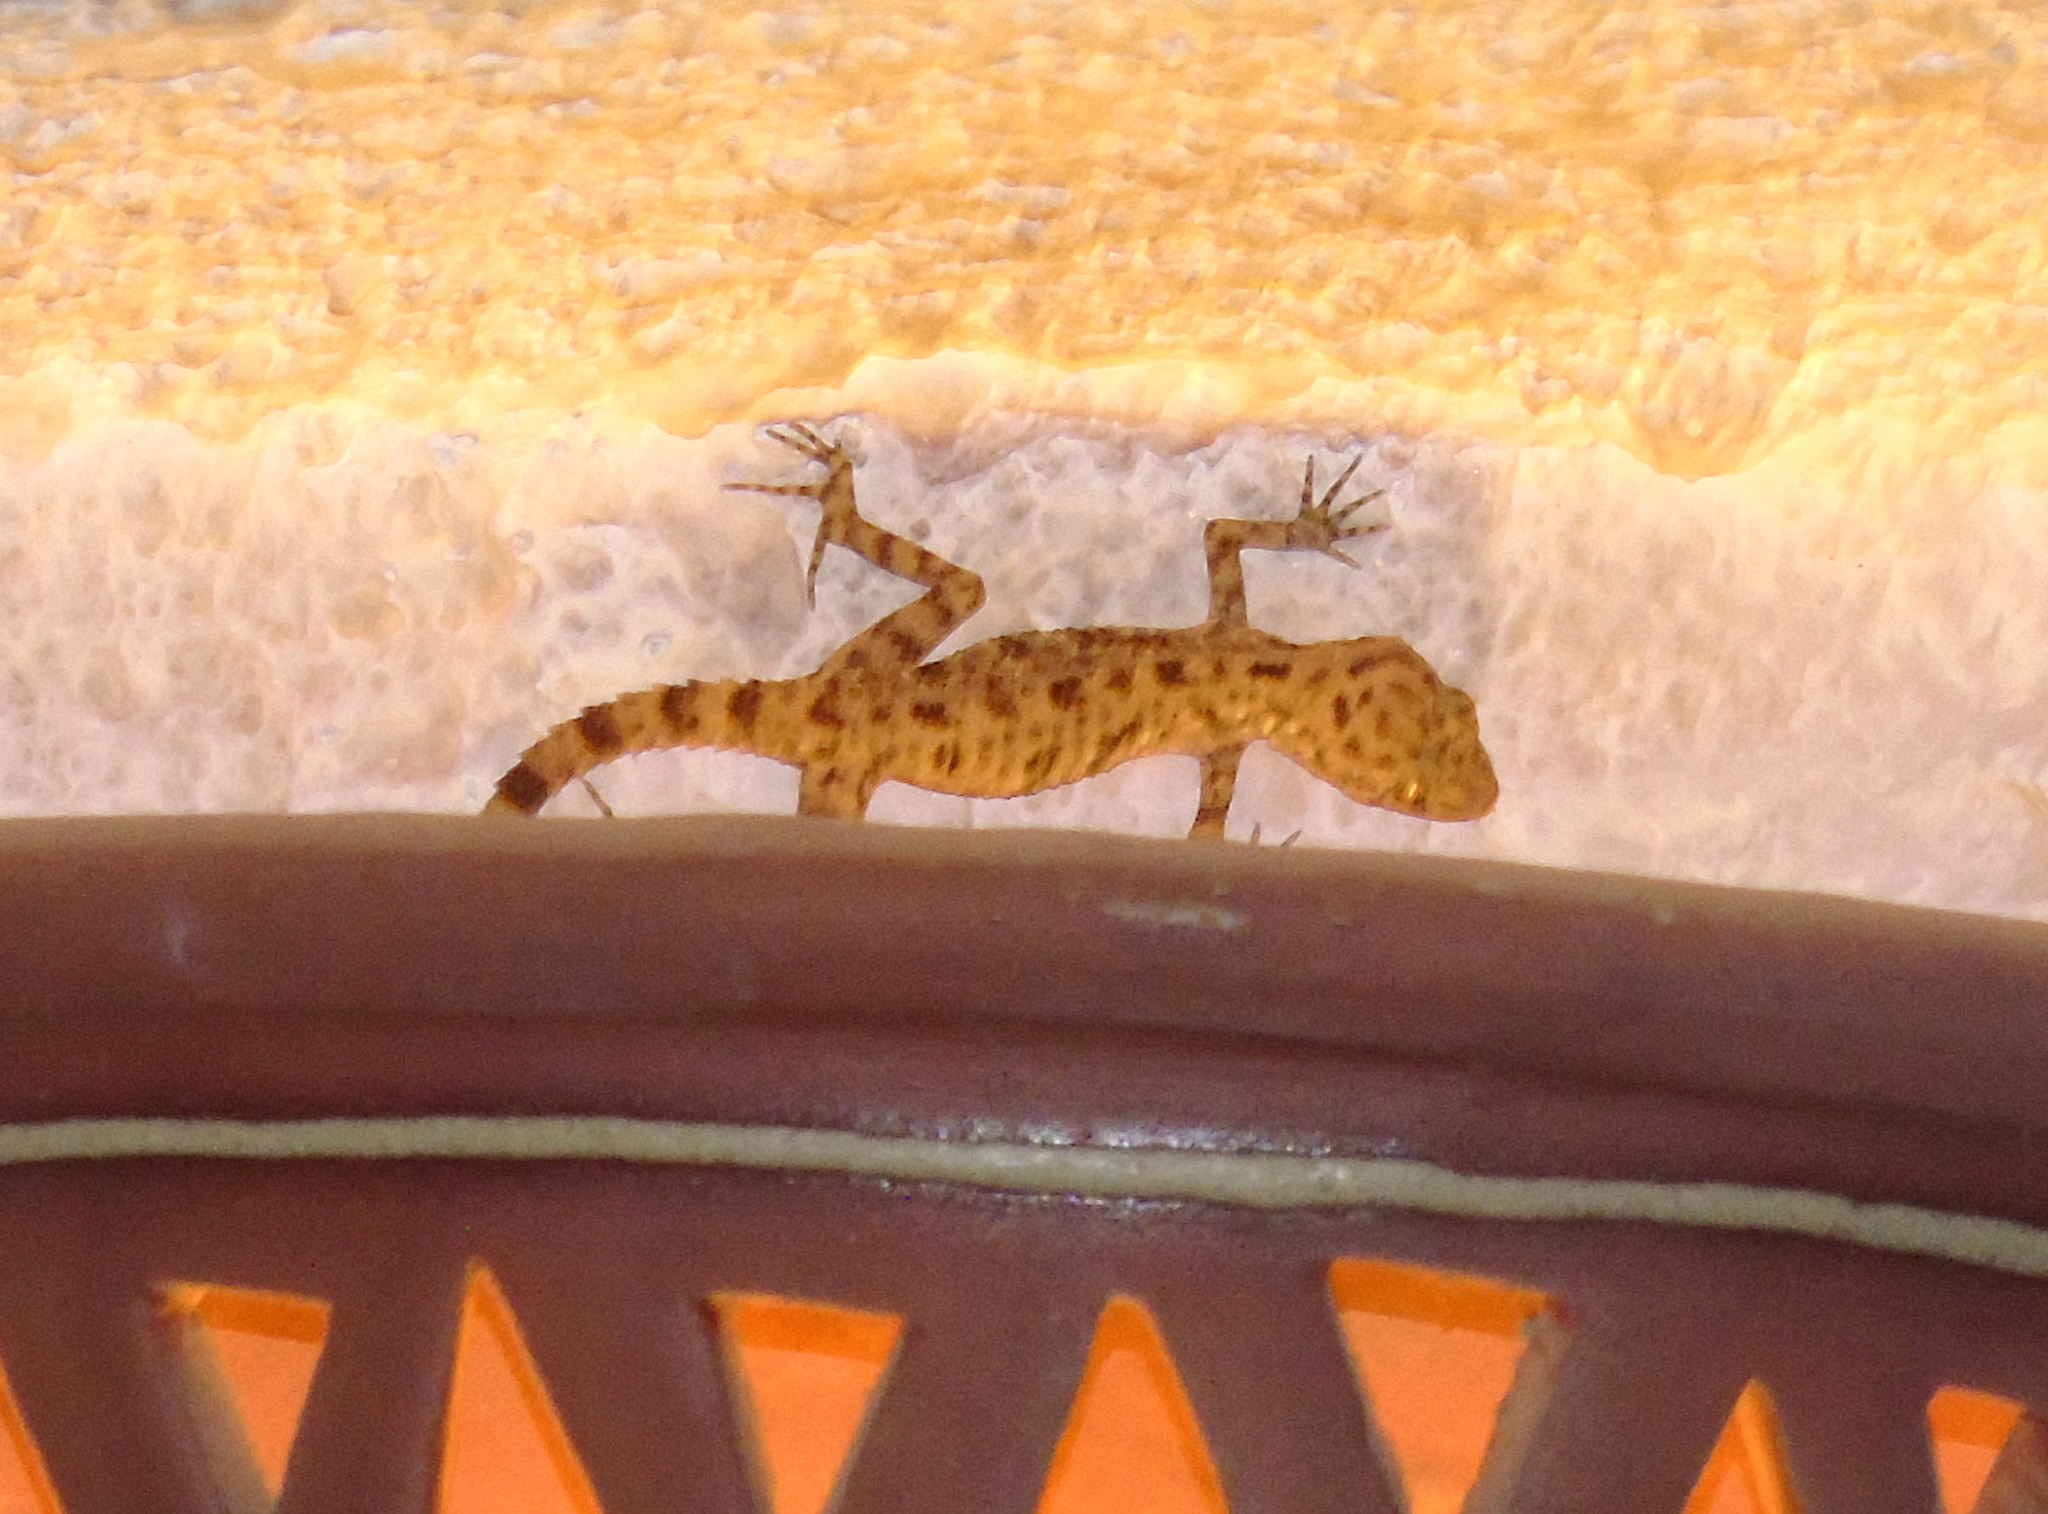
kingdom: Animalia
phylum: Chordata
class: Squamata
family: Gekkonidae
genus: Cyrtopodion
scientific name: Cyrtopodion scabrum
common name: Rough-tailed gecko
